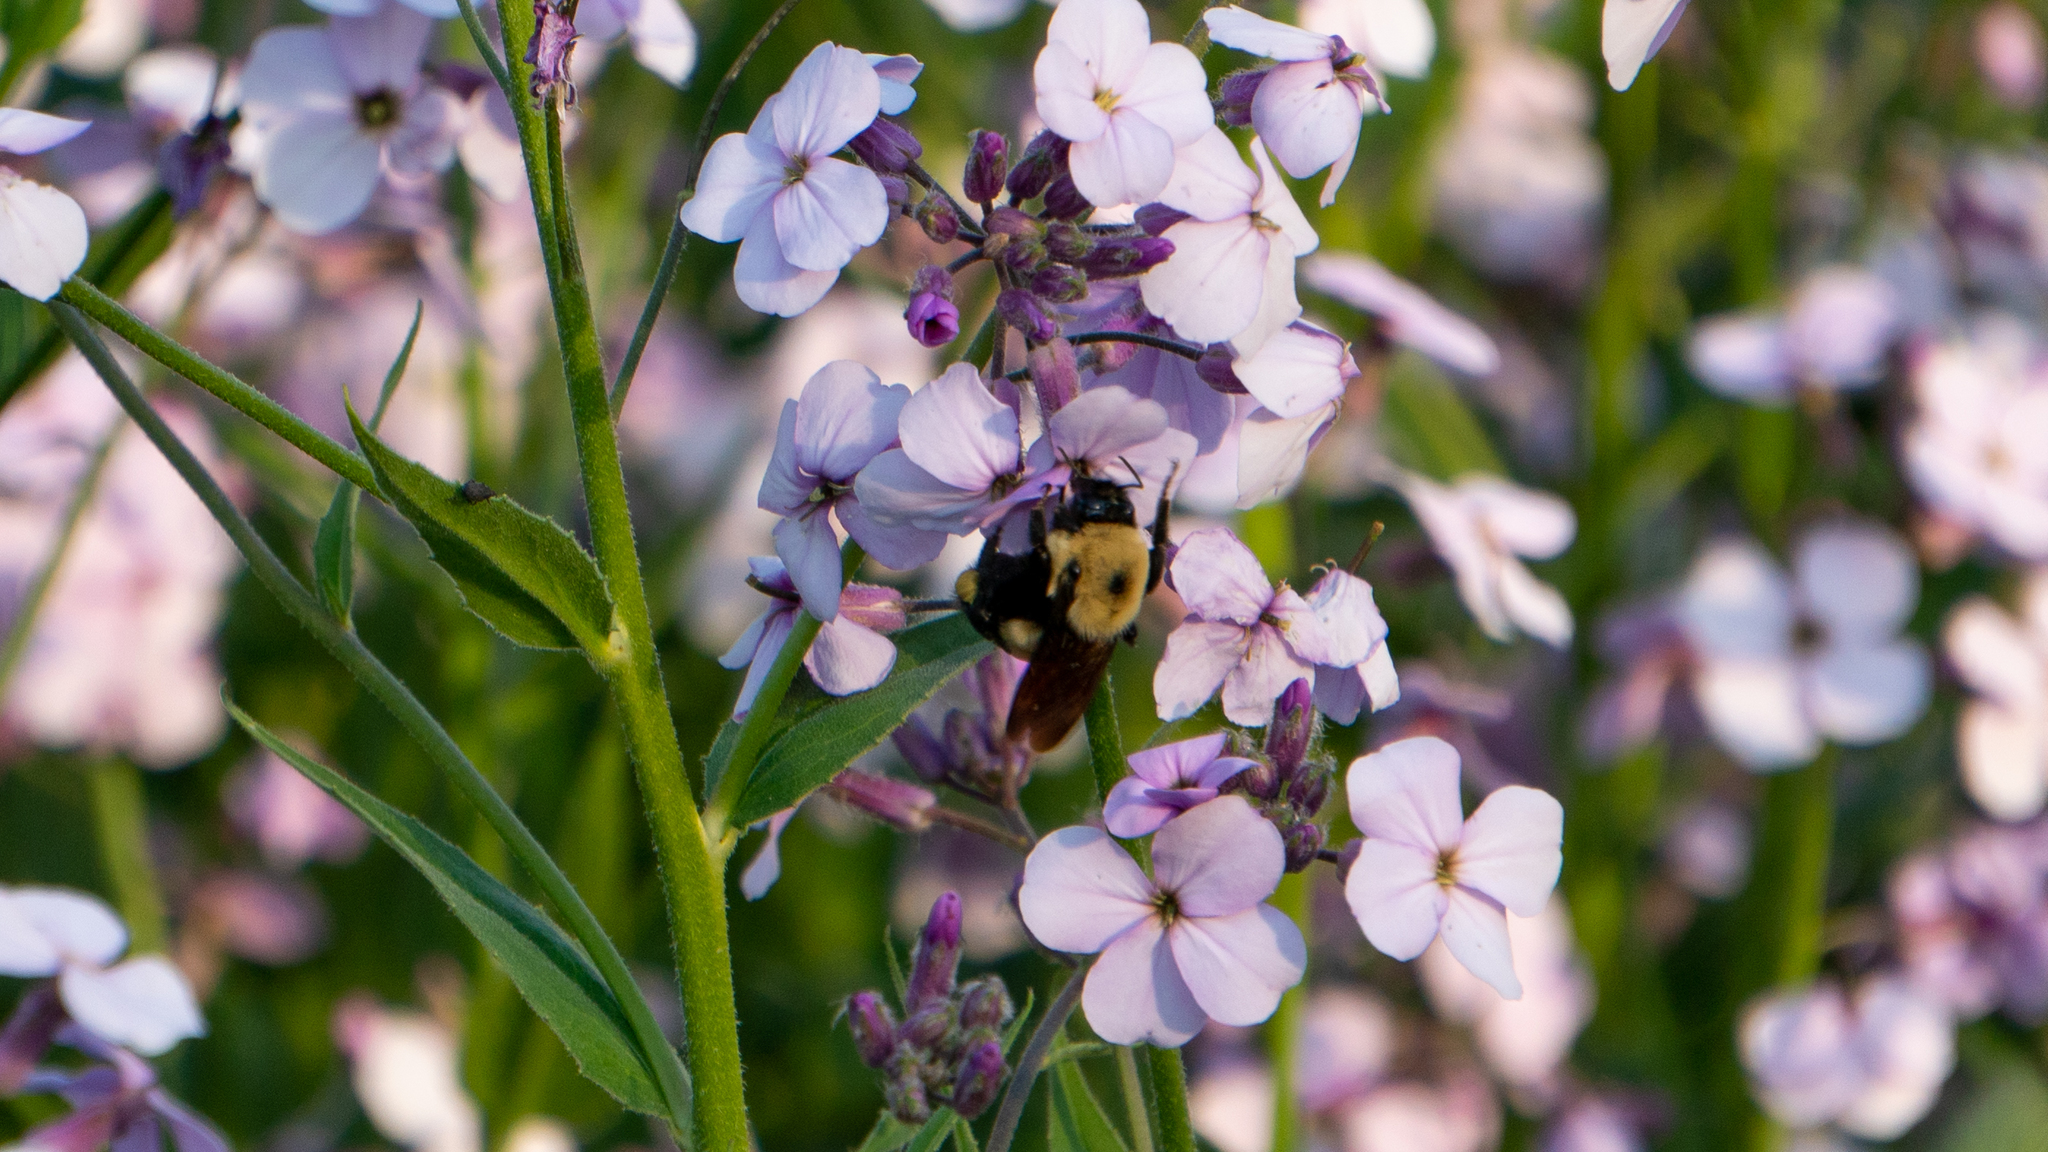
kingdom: Animalia
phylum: Arthropoda
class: Insecta
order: Hymenoptera
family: Apidae
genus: Bombus
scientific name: Bombus griseocollis
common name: Brown-belted bumble bee
